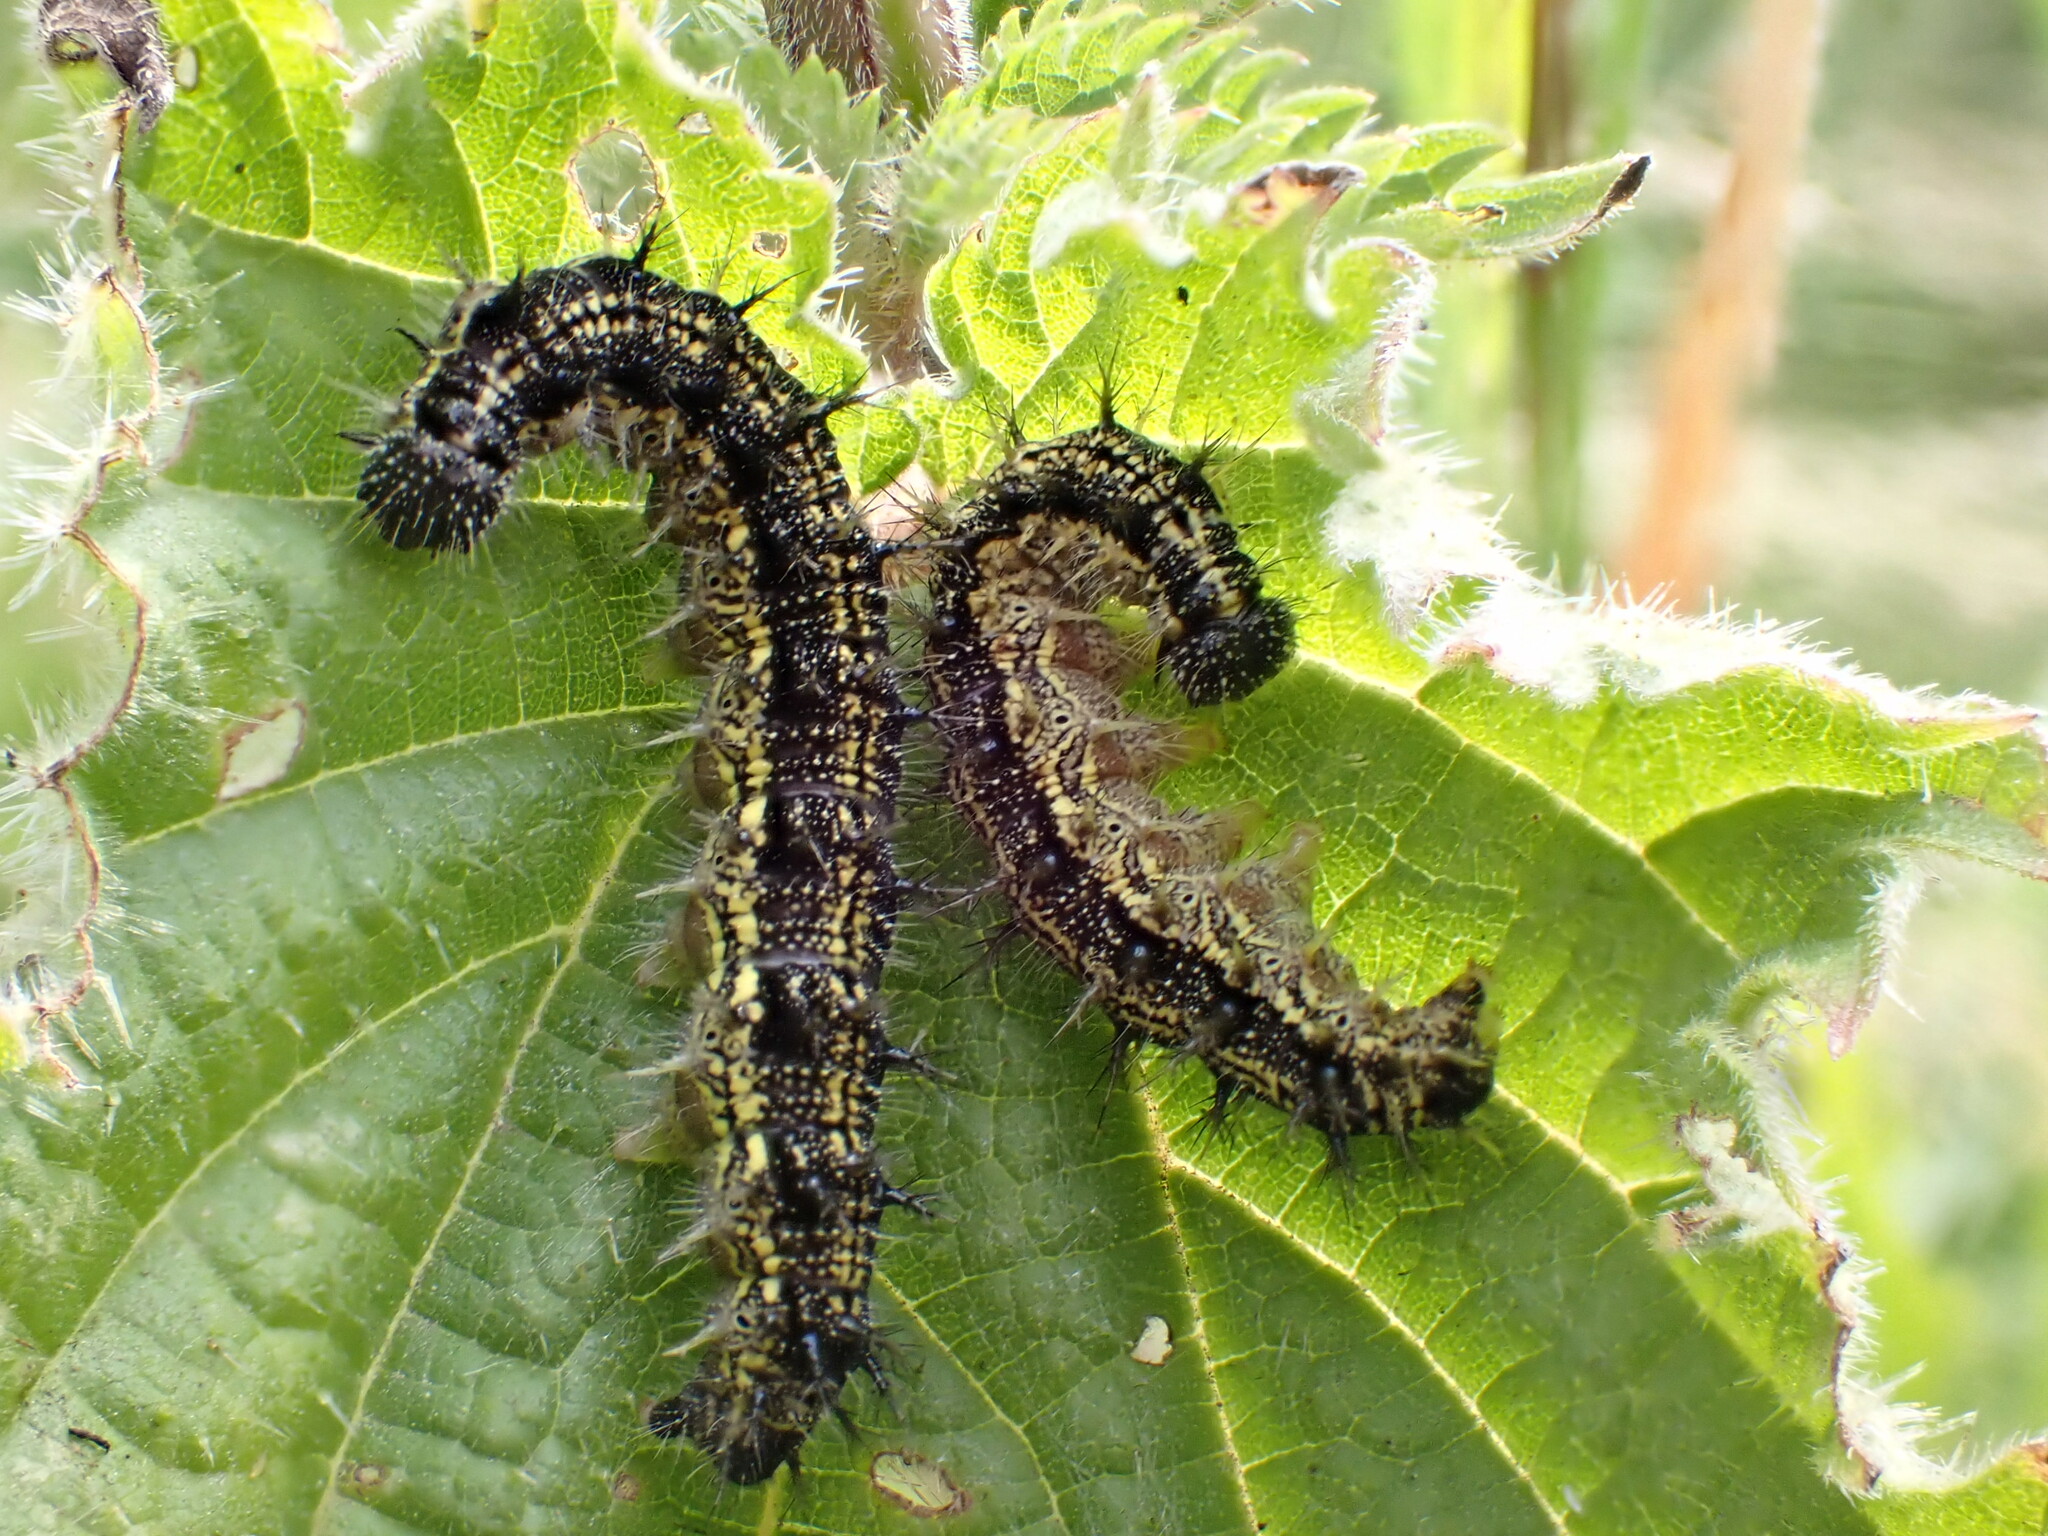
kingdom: Animalia
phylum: Arthropoda
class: Insecta
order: Lepidoptera
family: Nymphalidae
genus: Aglais
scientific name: Aglais urticae
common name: Small tortoiseshell
